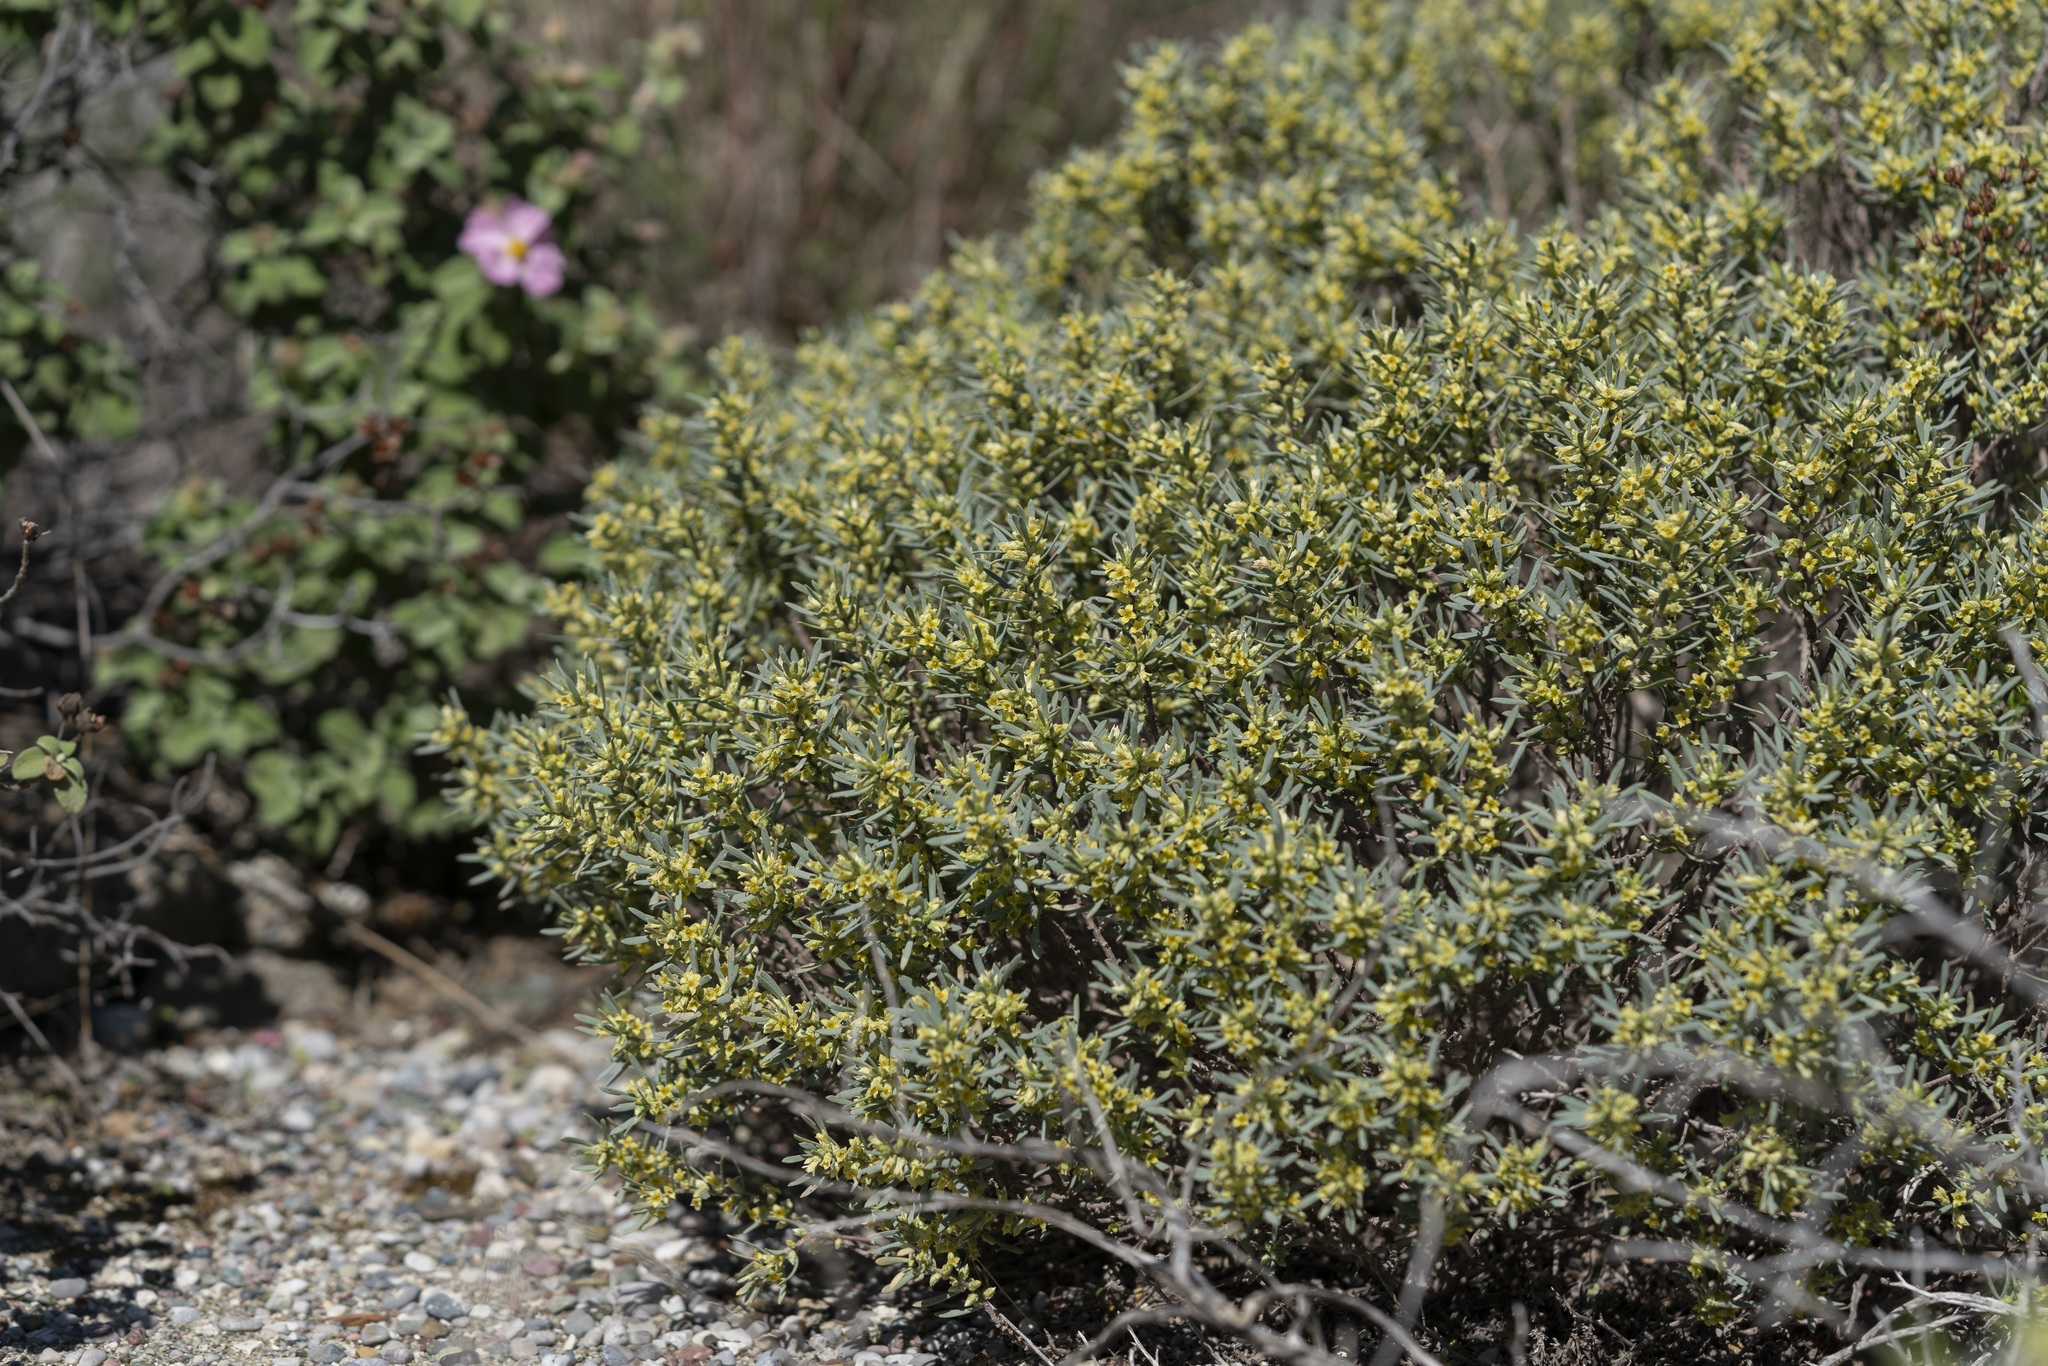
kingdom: Plantae
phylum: Tracheophyta
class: Magnoliopsida
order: Malvales
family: Thymelaeaceae
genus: Thymelaea
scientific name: Thymelaea tartonraira
